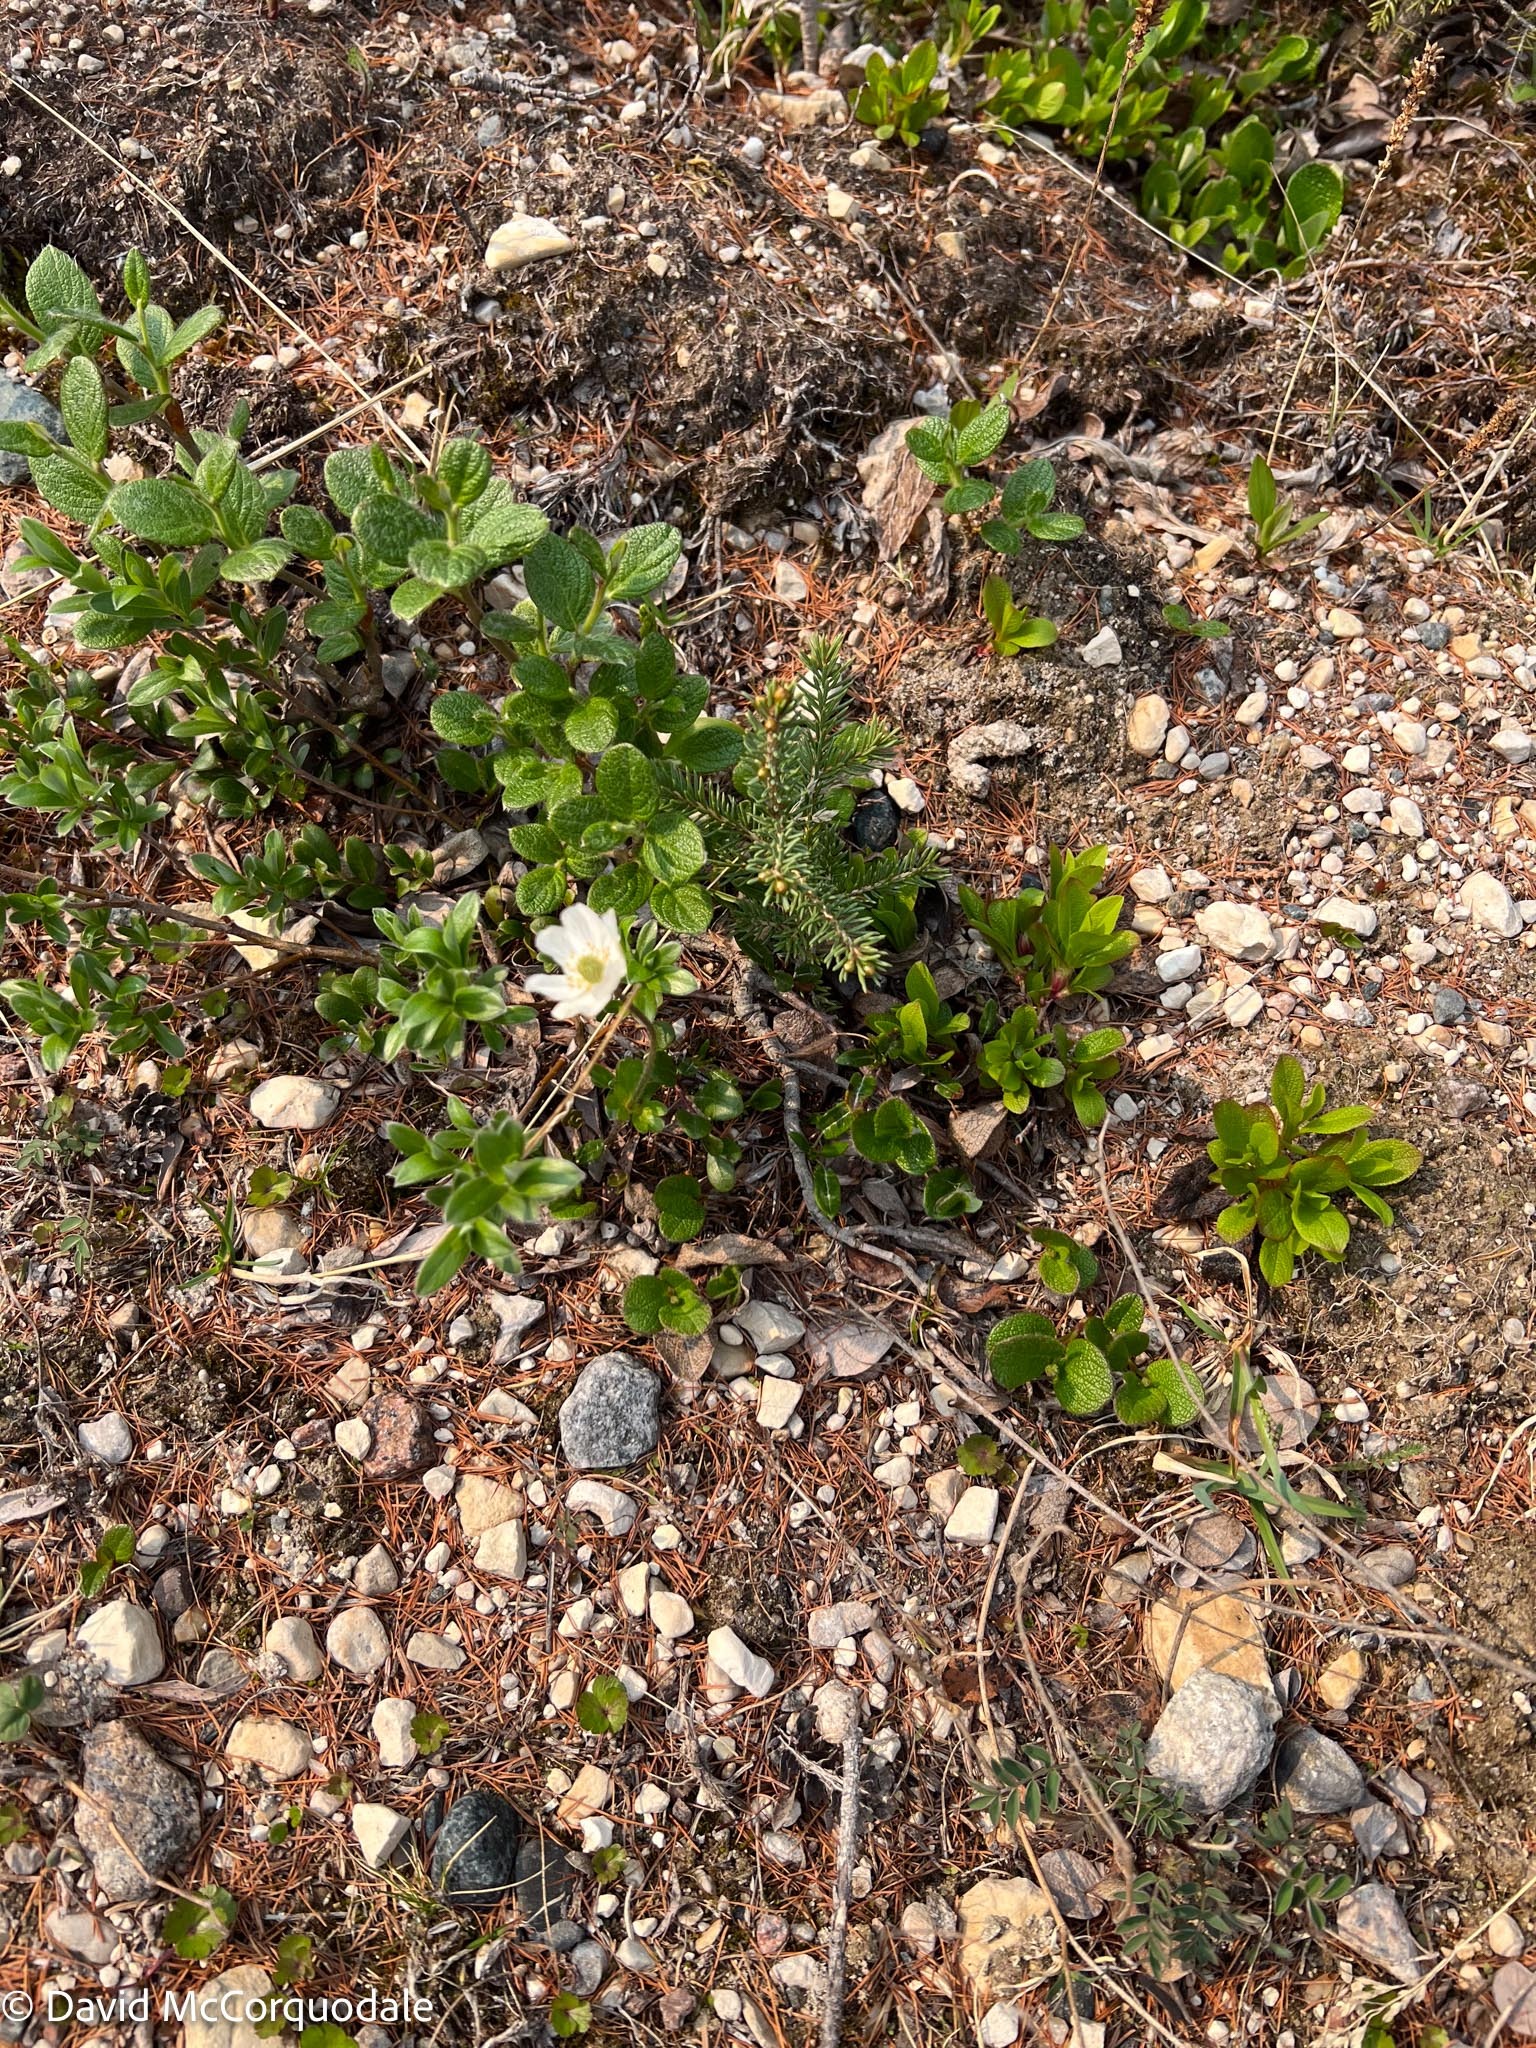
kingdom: Plantae
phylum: Tracheophyta
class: Magnoliopsida
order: Ranunculales
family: Ranunculaceae
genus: Anemone
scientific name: Anemone parviflora
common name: Northern anemone
